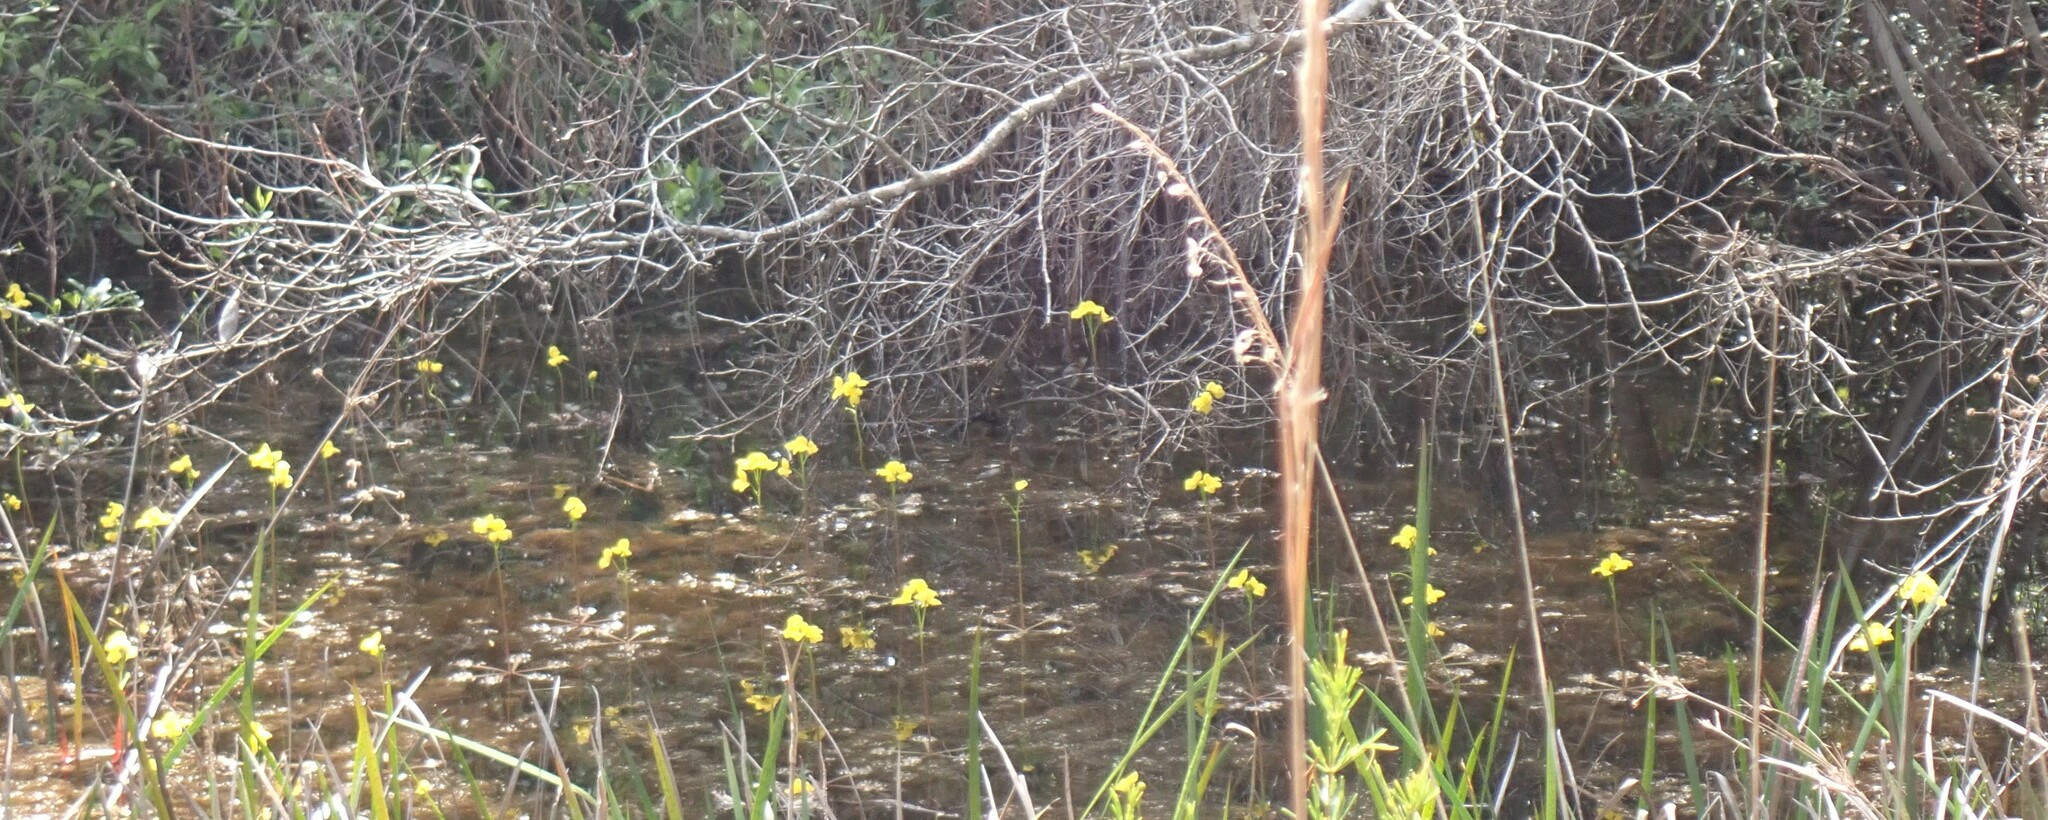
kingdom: Plantae
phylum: Tracheophyta
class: Magnoliopsida
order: Lamiales
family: Lentibulariaceae
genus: Utricularia
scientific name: Utricularia inflata
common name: Floating bladderwort
